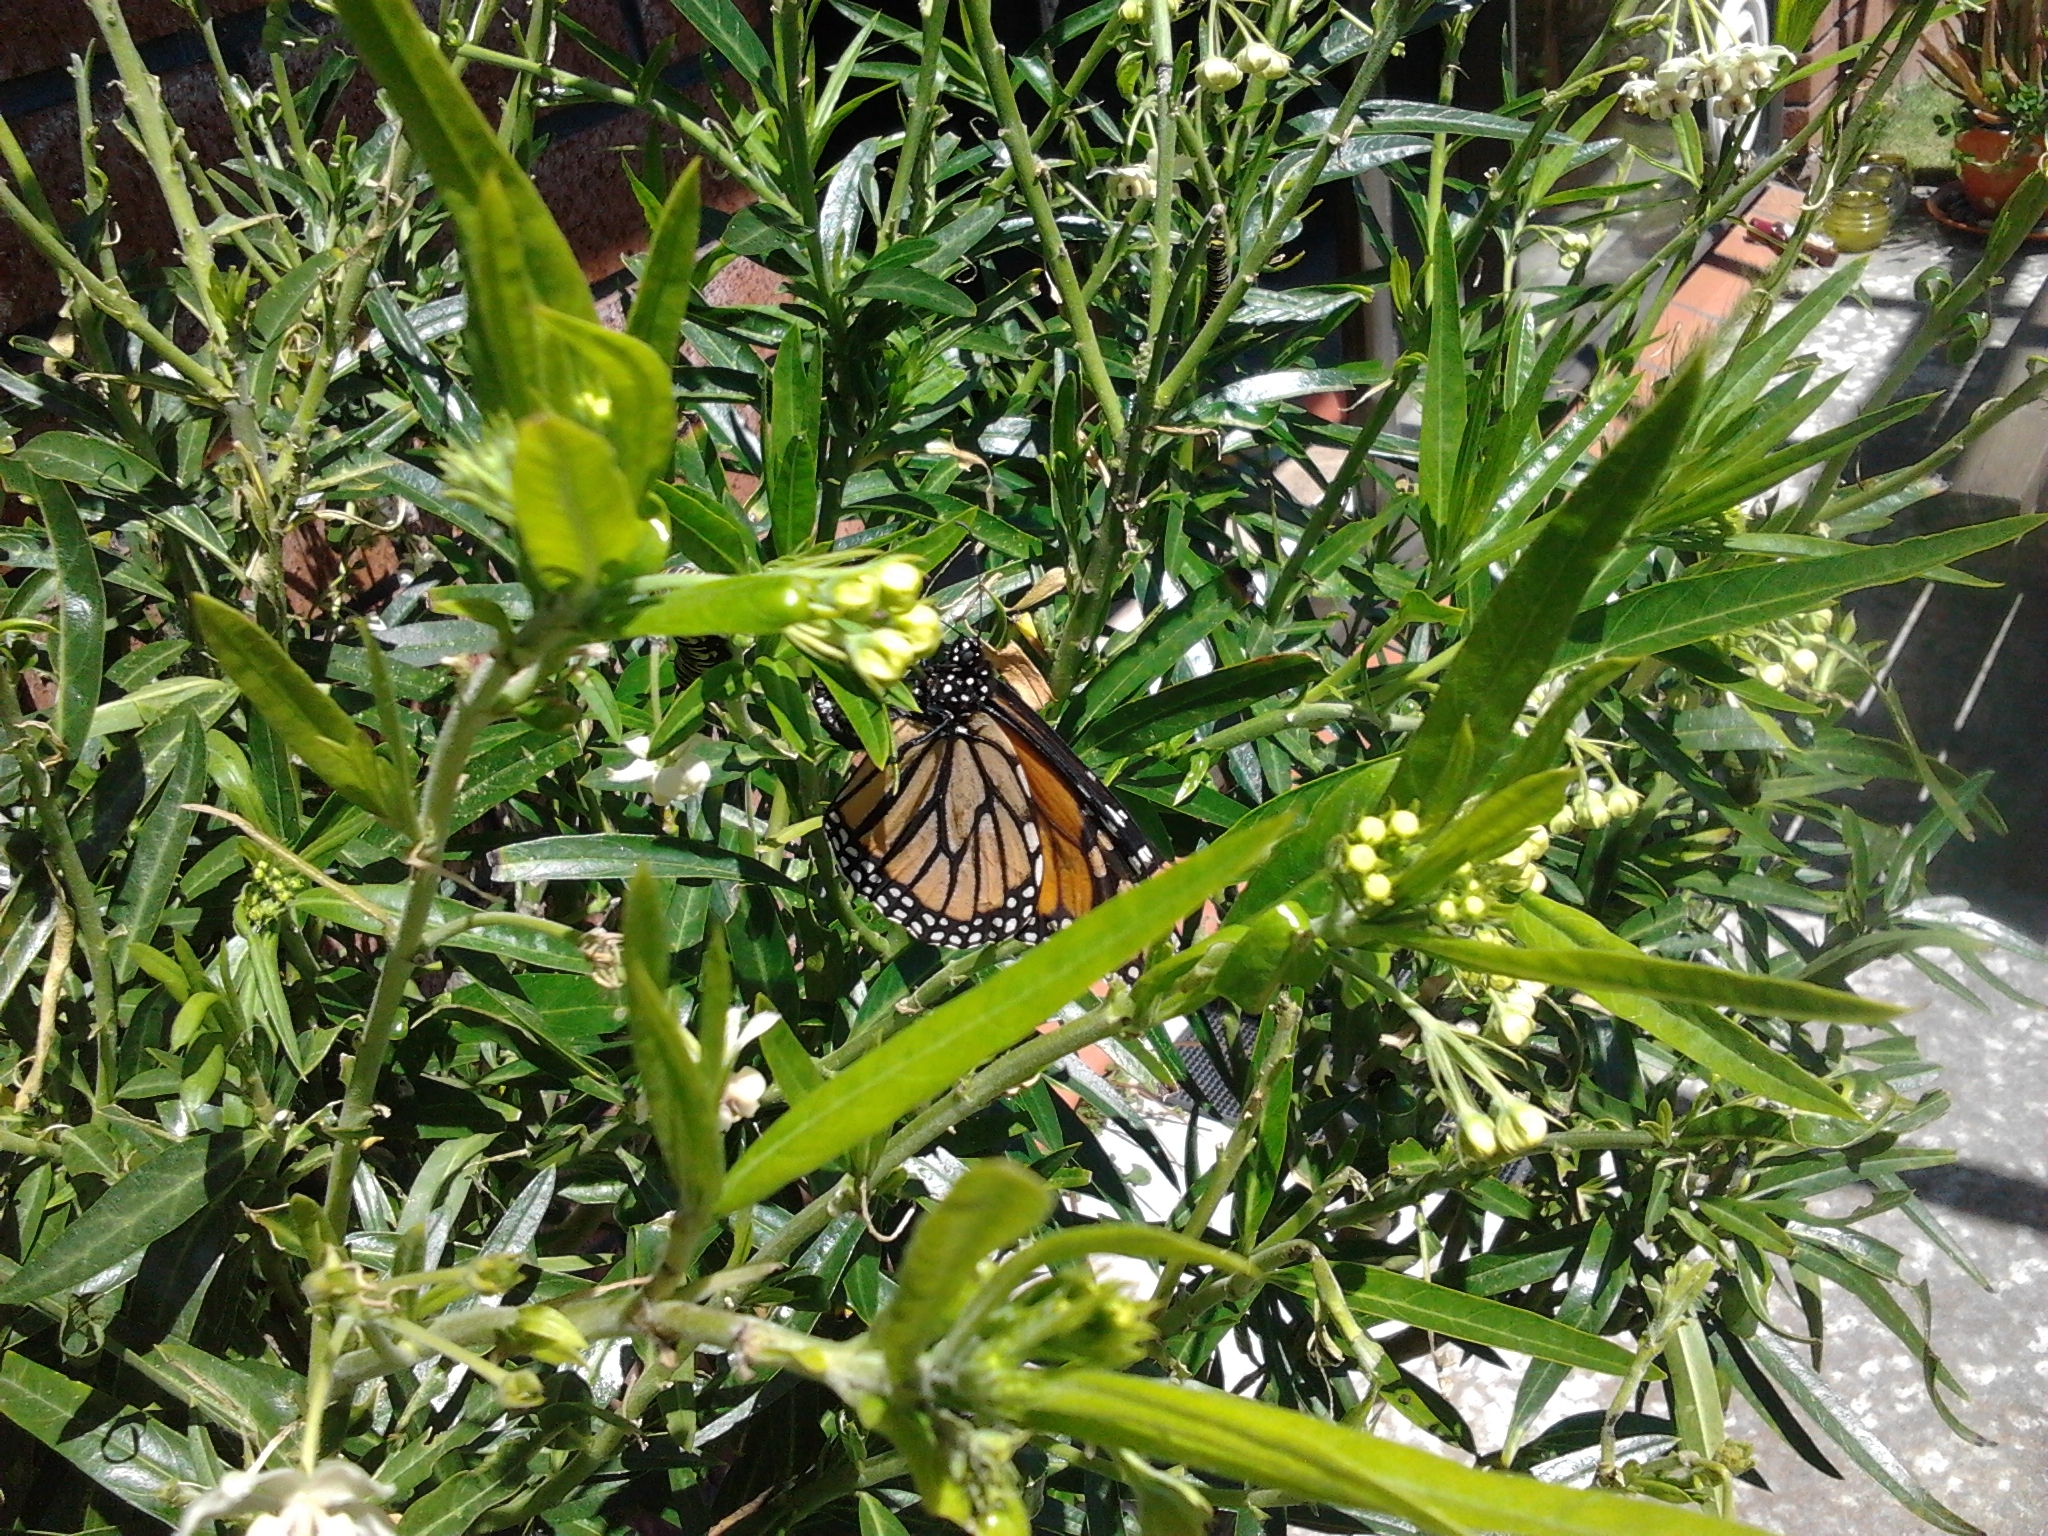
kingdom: Animalia
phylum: Arthropoda
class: Insecta
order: Lepidoptera
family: Nymphalidae
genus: Danaus
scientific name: Danaus plexippus
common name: Monarch
